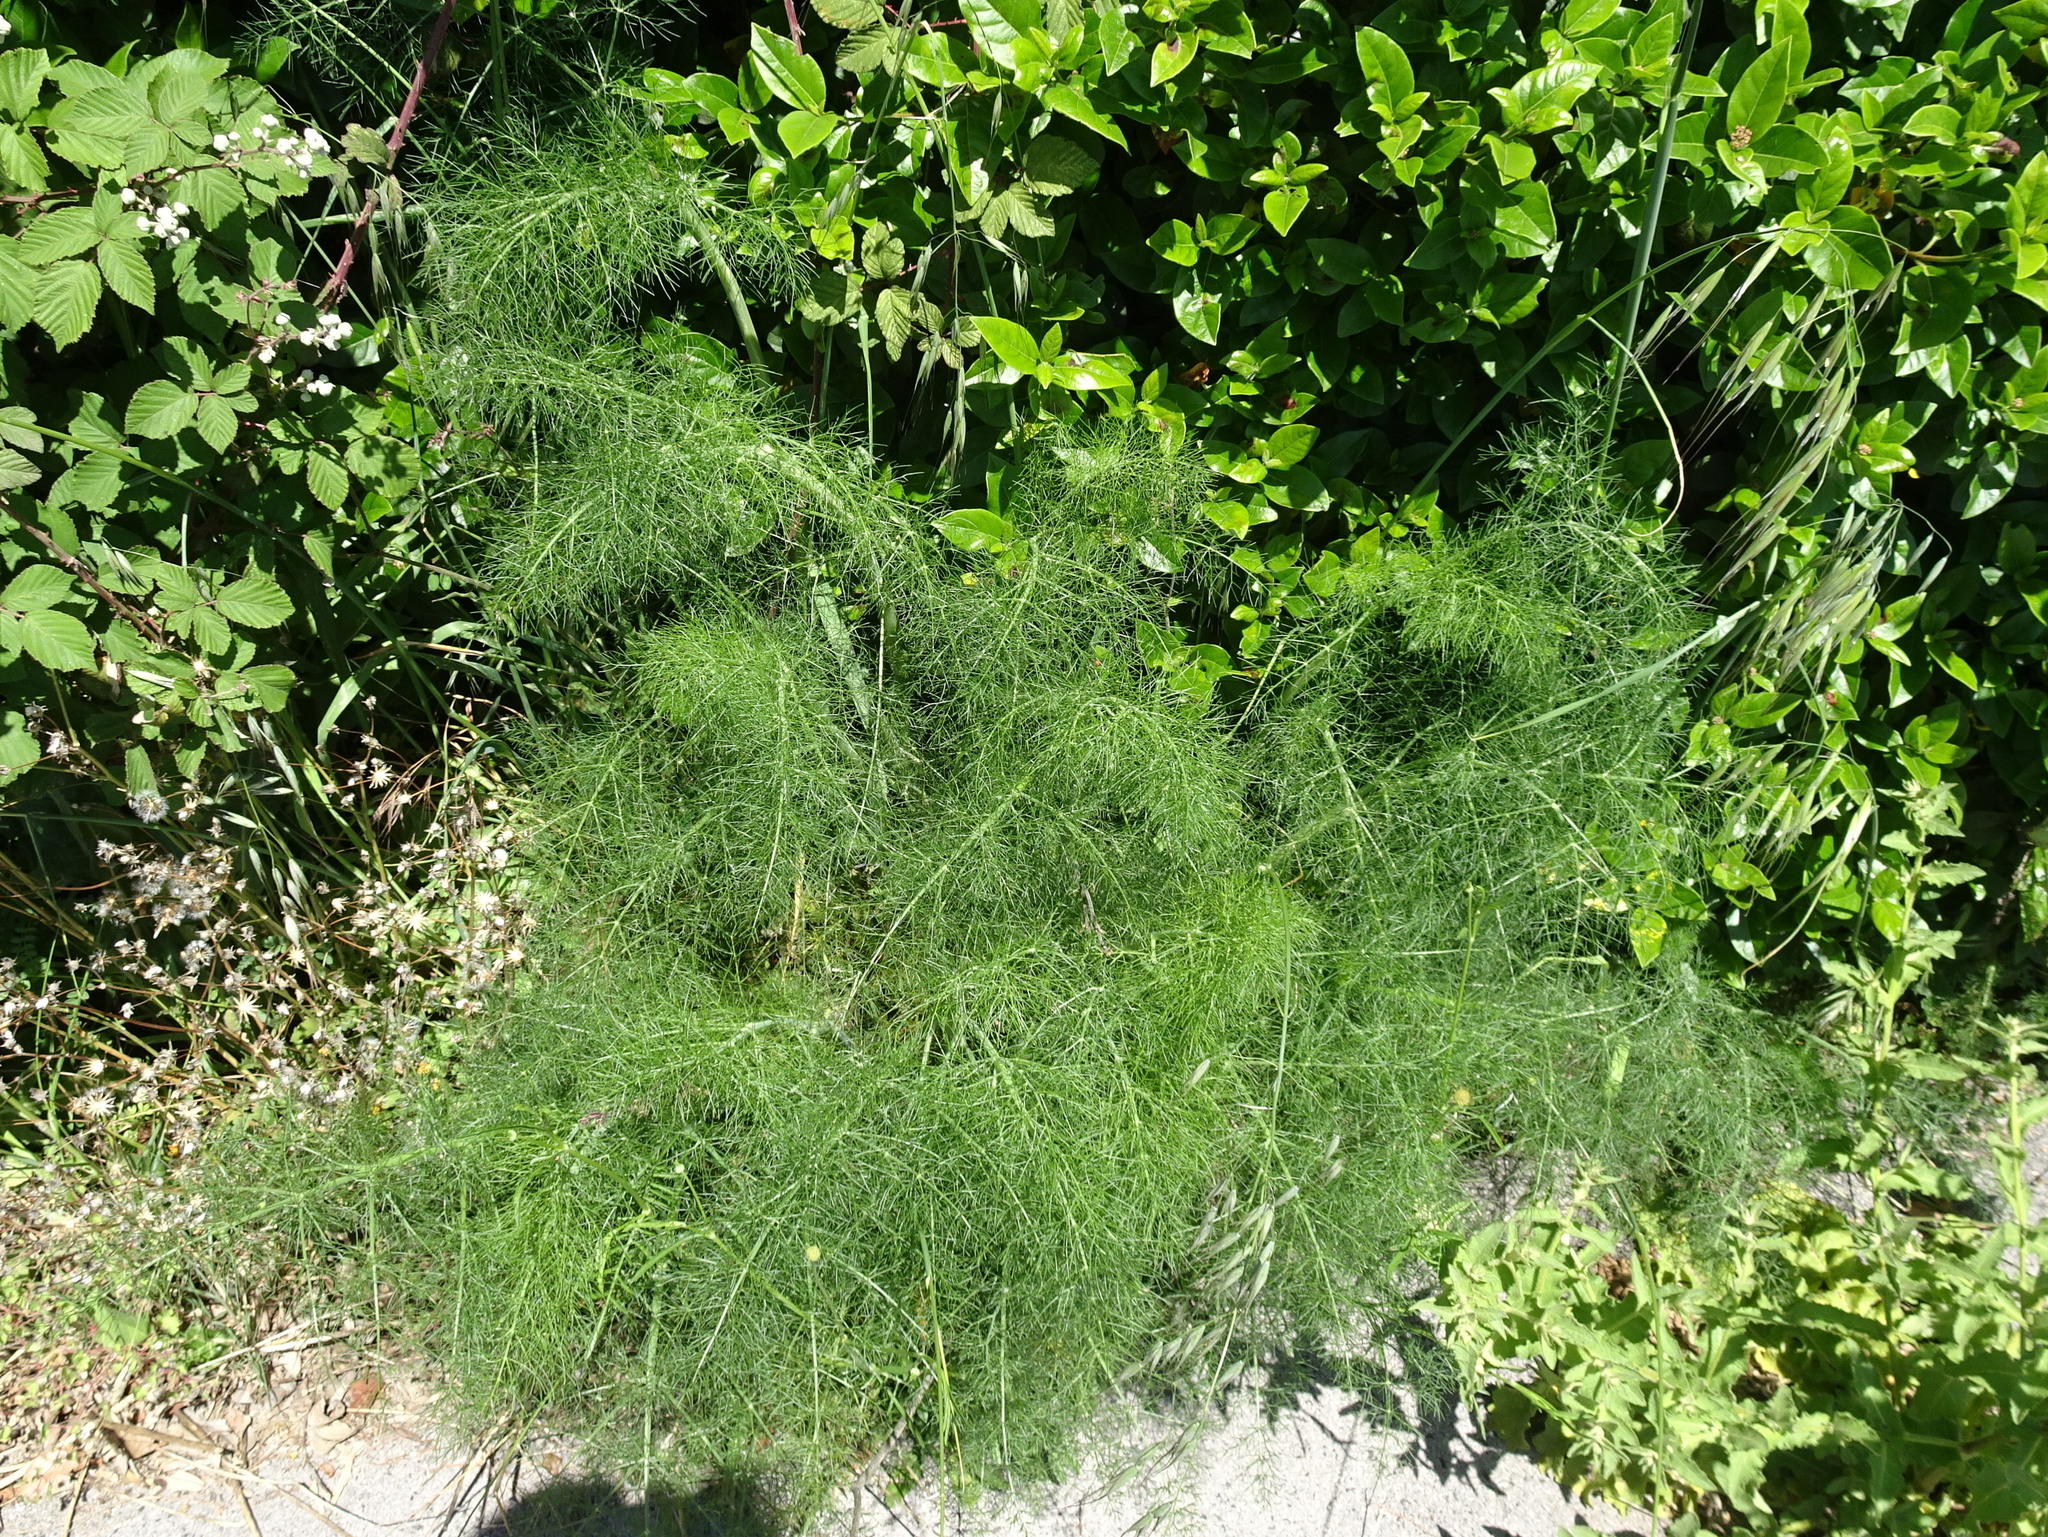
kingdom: Plantae
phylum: Tracheophyta
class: Magnoliopsida
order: Apiales
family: Apiaceae
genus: Foeniculum
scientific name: Foeniculum vulgare
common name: Fennel
